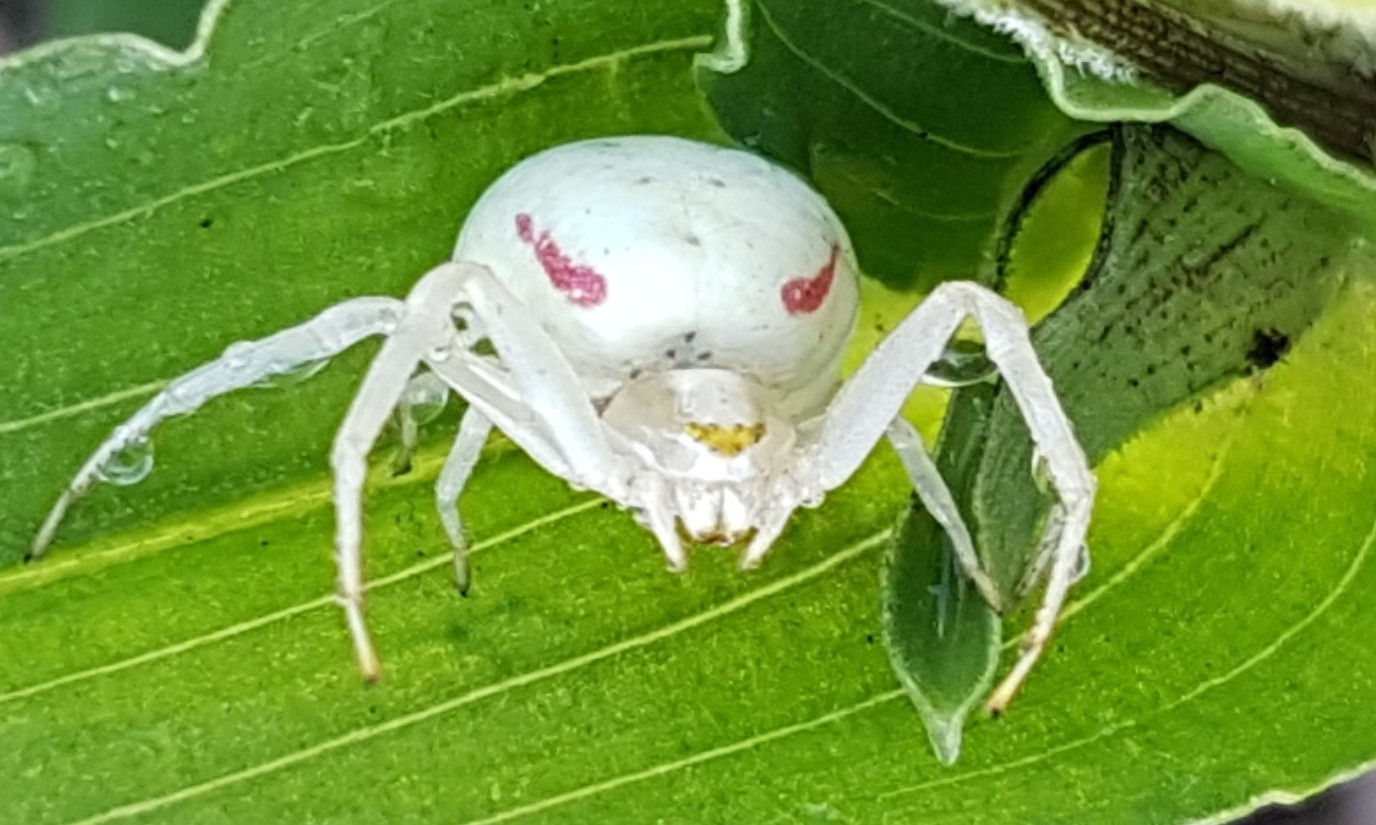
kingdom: Animalia
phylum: Arthropoda
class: Arachnida
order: Araneae
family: Thomisidae
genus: Misumena
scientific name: Misumena vatia
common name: Goldenrod crab spider
